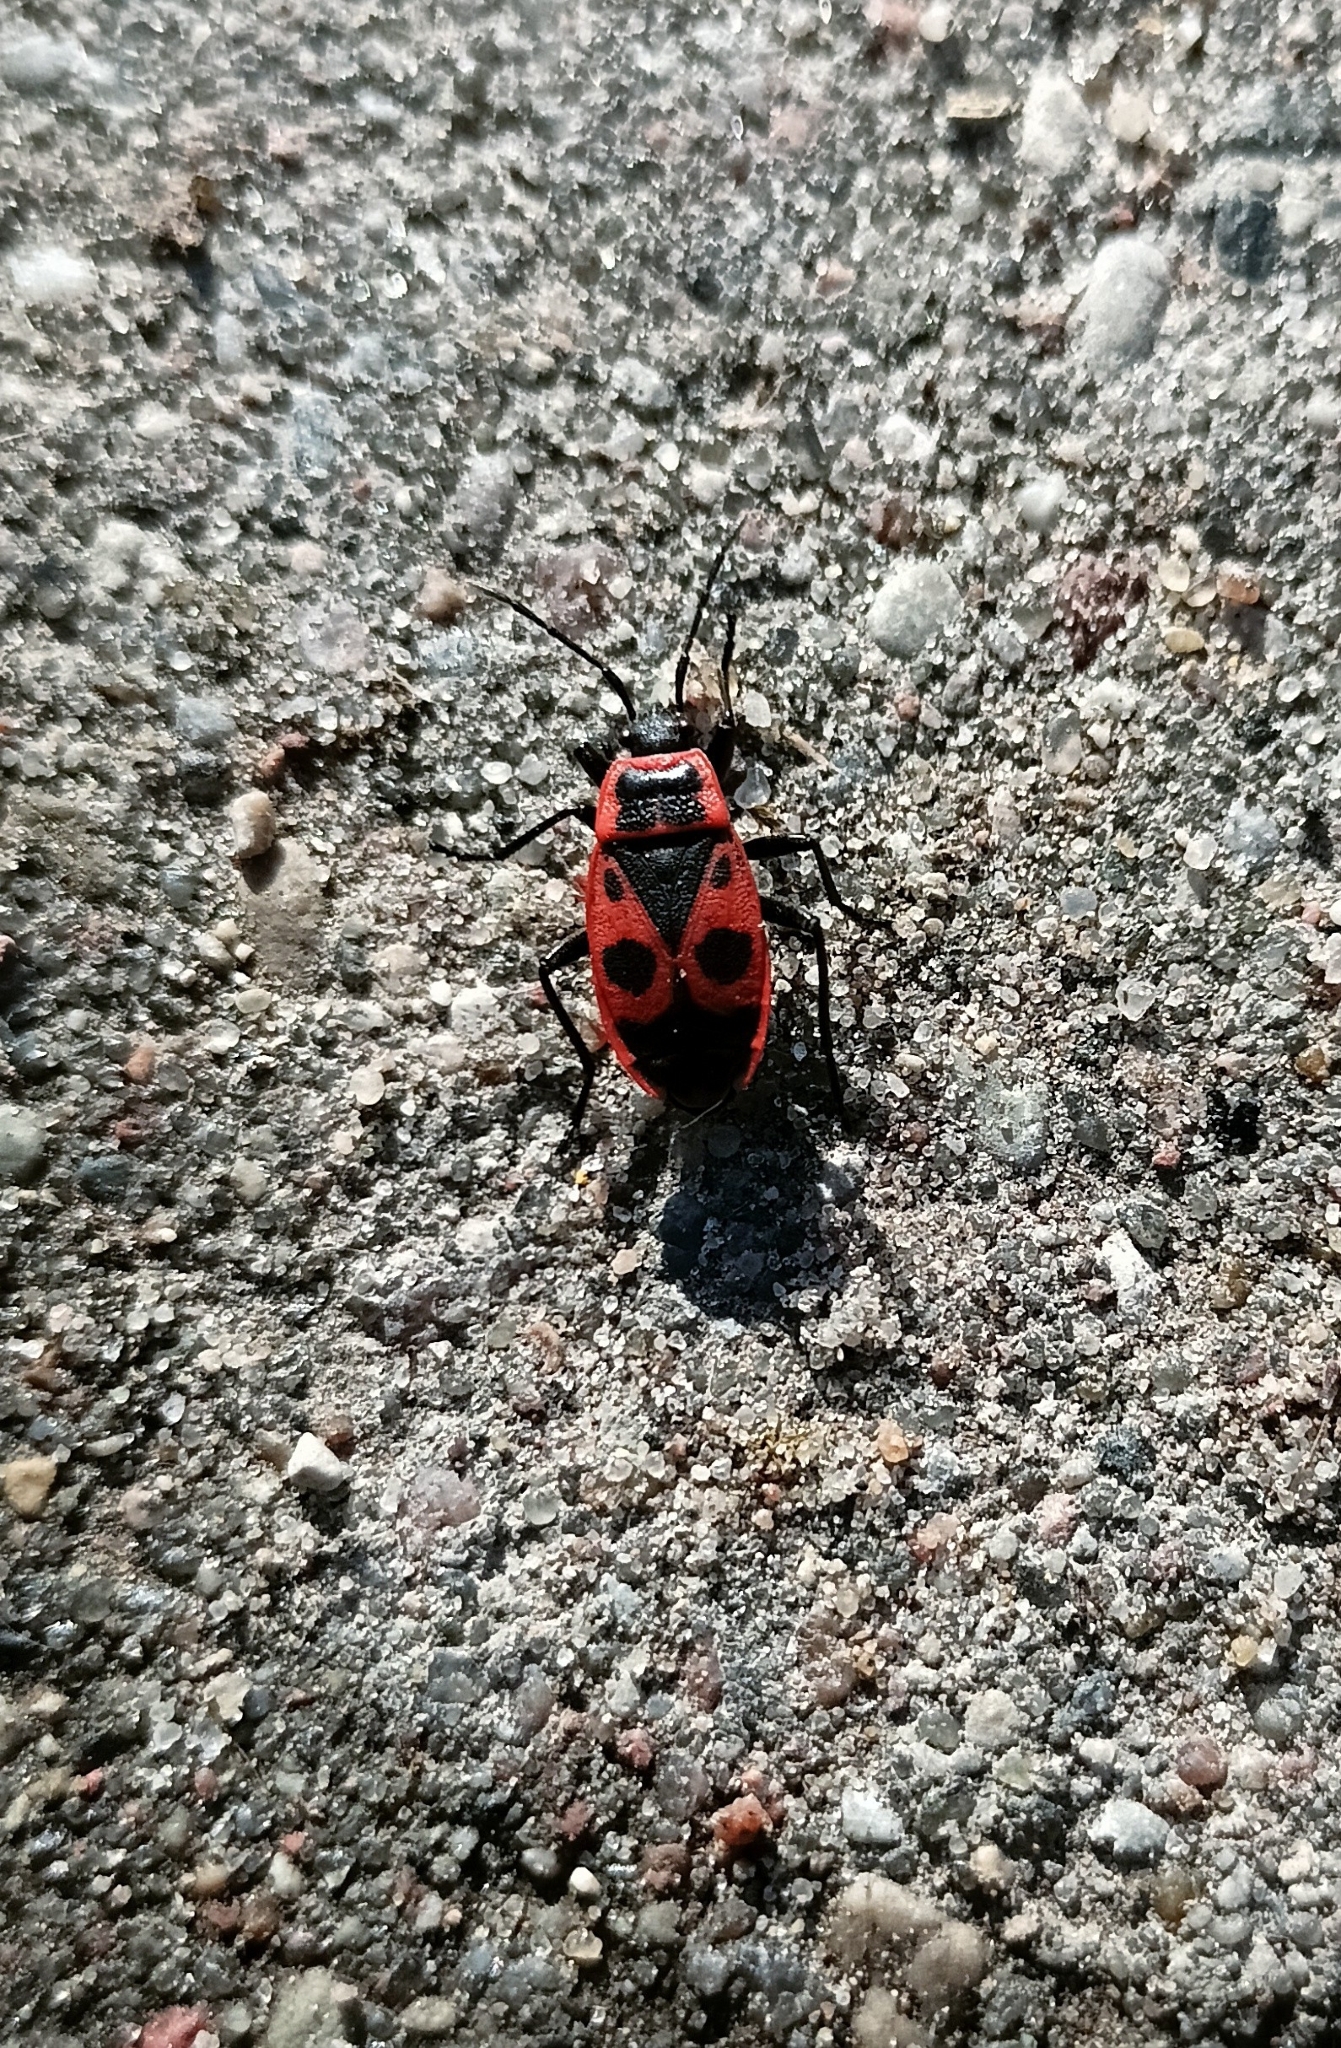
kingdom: Animalia
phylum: Arthropoda
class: Insecta
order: Hemiptera
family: Pyrrhocoridae
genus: Pyrrhocoris
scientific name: Pyrrhocoris apterus
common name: Firebug
